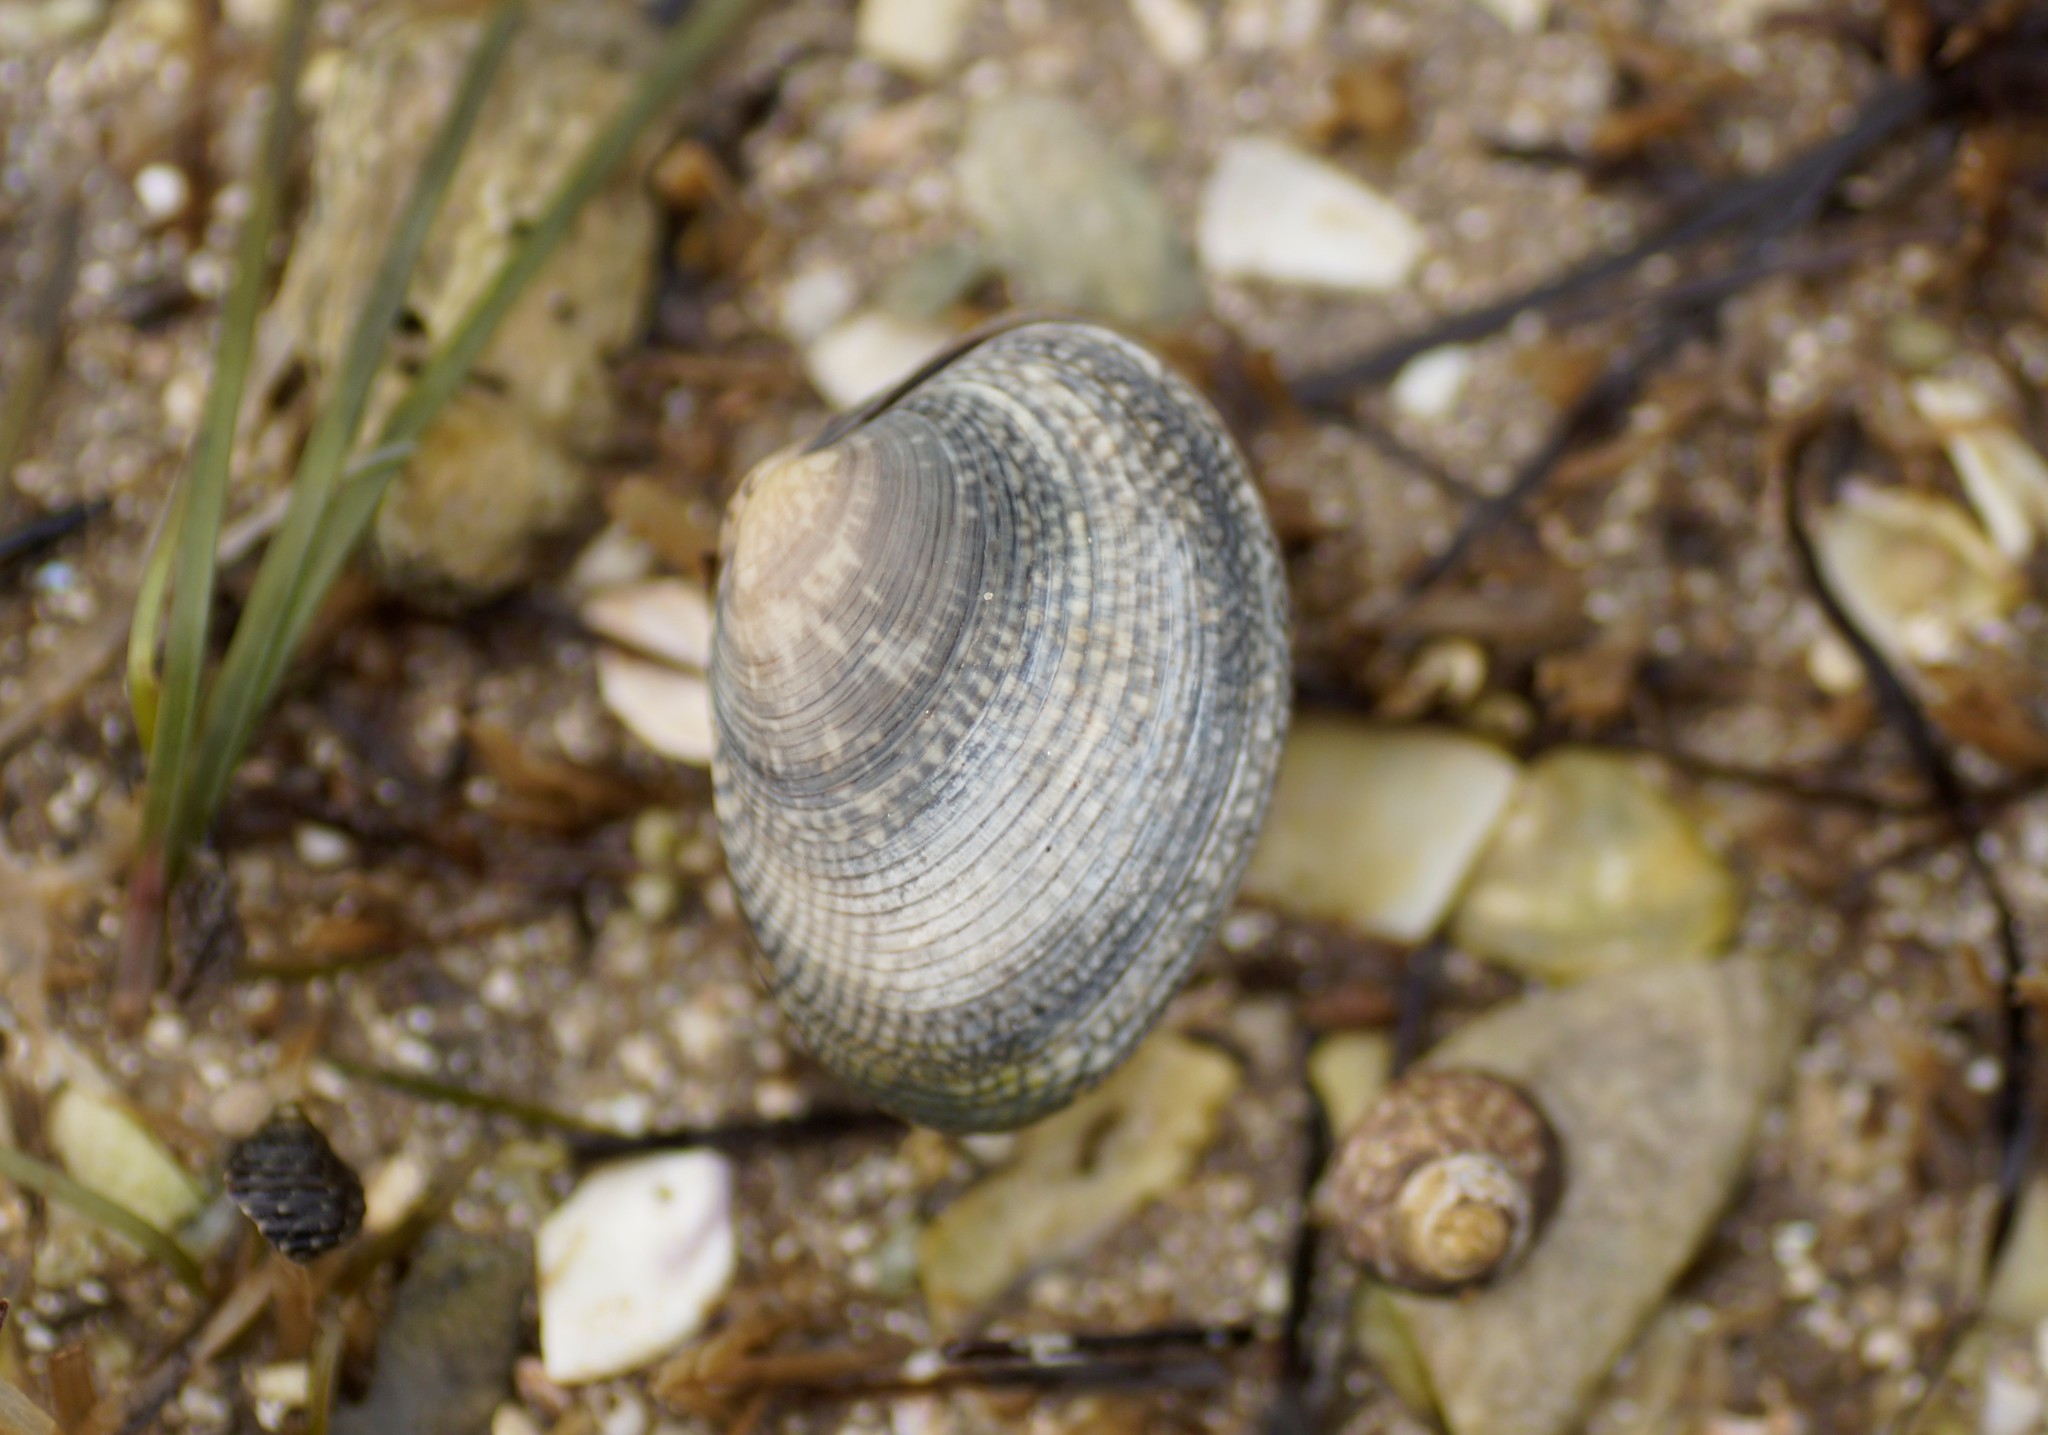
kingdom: Animalia
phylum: Mollusca
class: Bivalvia
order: Venerida
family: Veneridae
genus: Katelysia
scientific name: Katelysia rhytiphora
